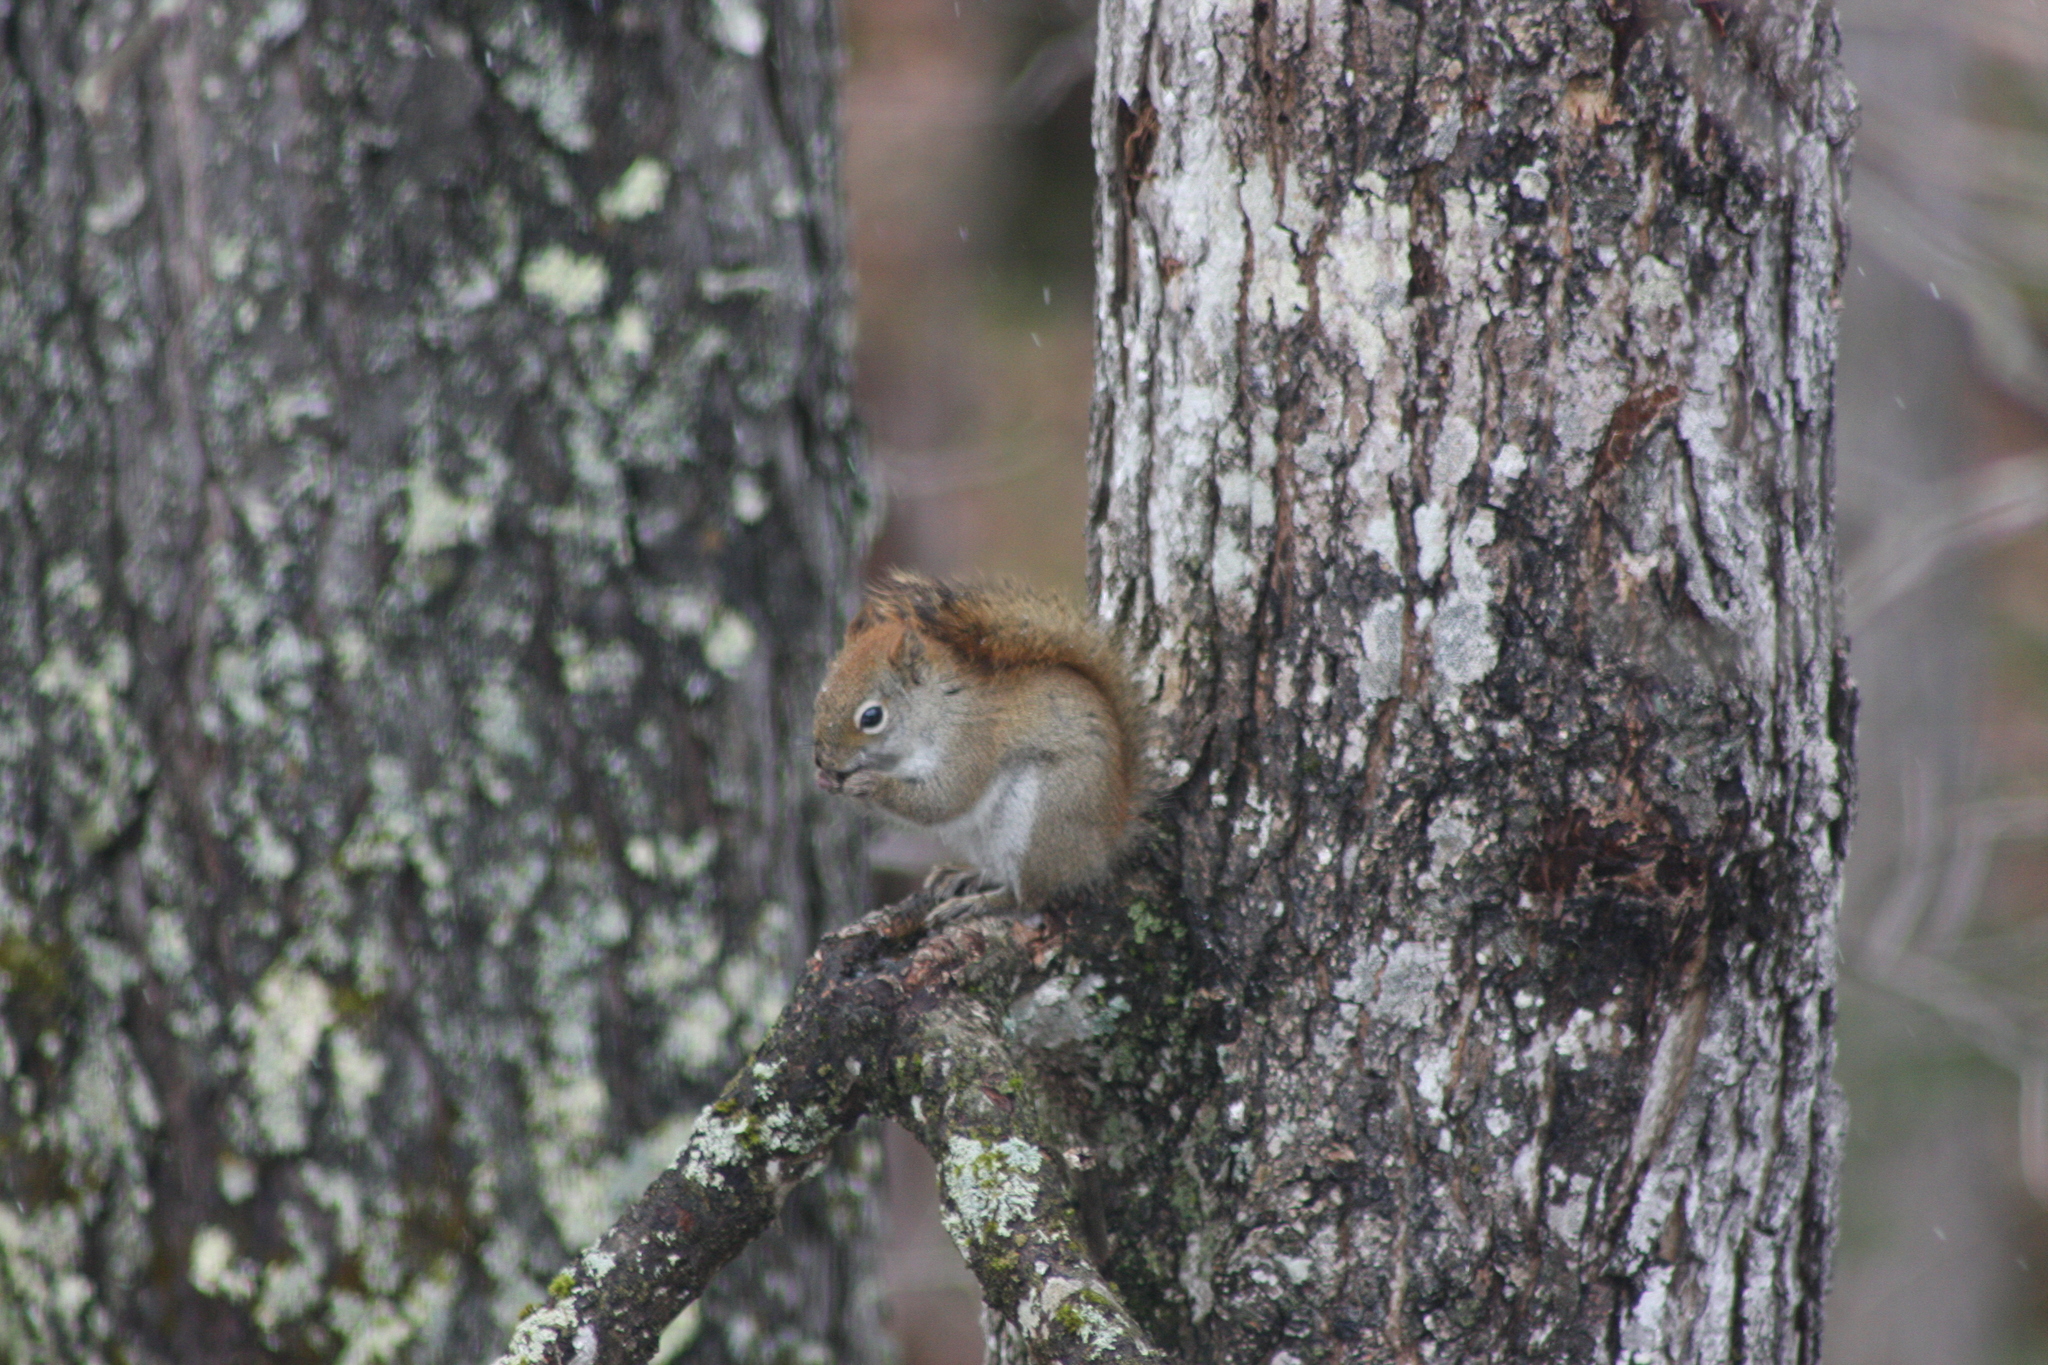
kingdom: Animalia
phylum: Chordata
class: Mammalia
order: Rodentia
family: Sciuridae
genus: Tamiasciurus
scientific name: Tamiasciurus hudsonicus
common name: Red squirrel
